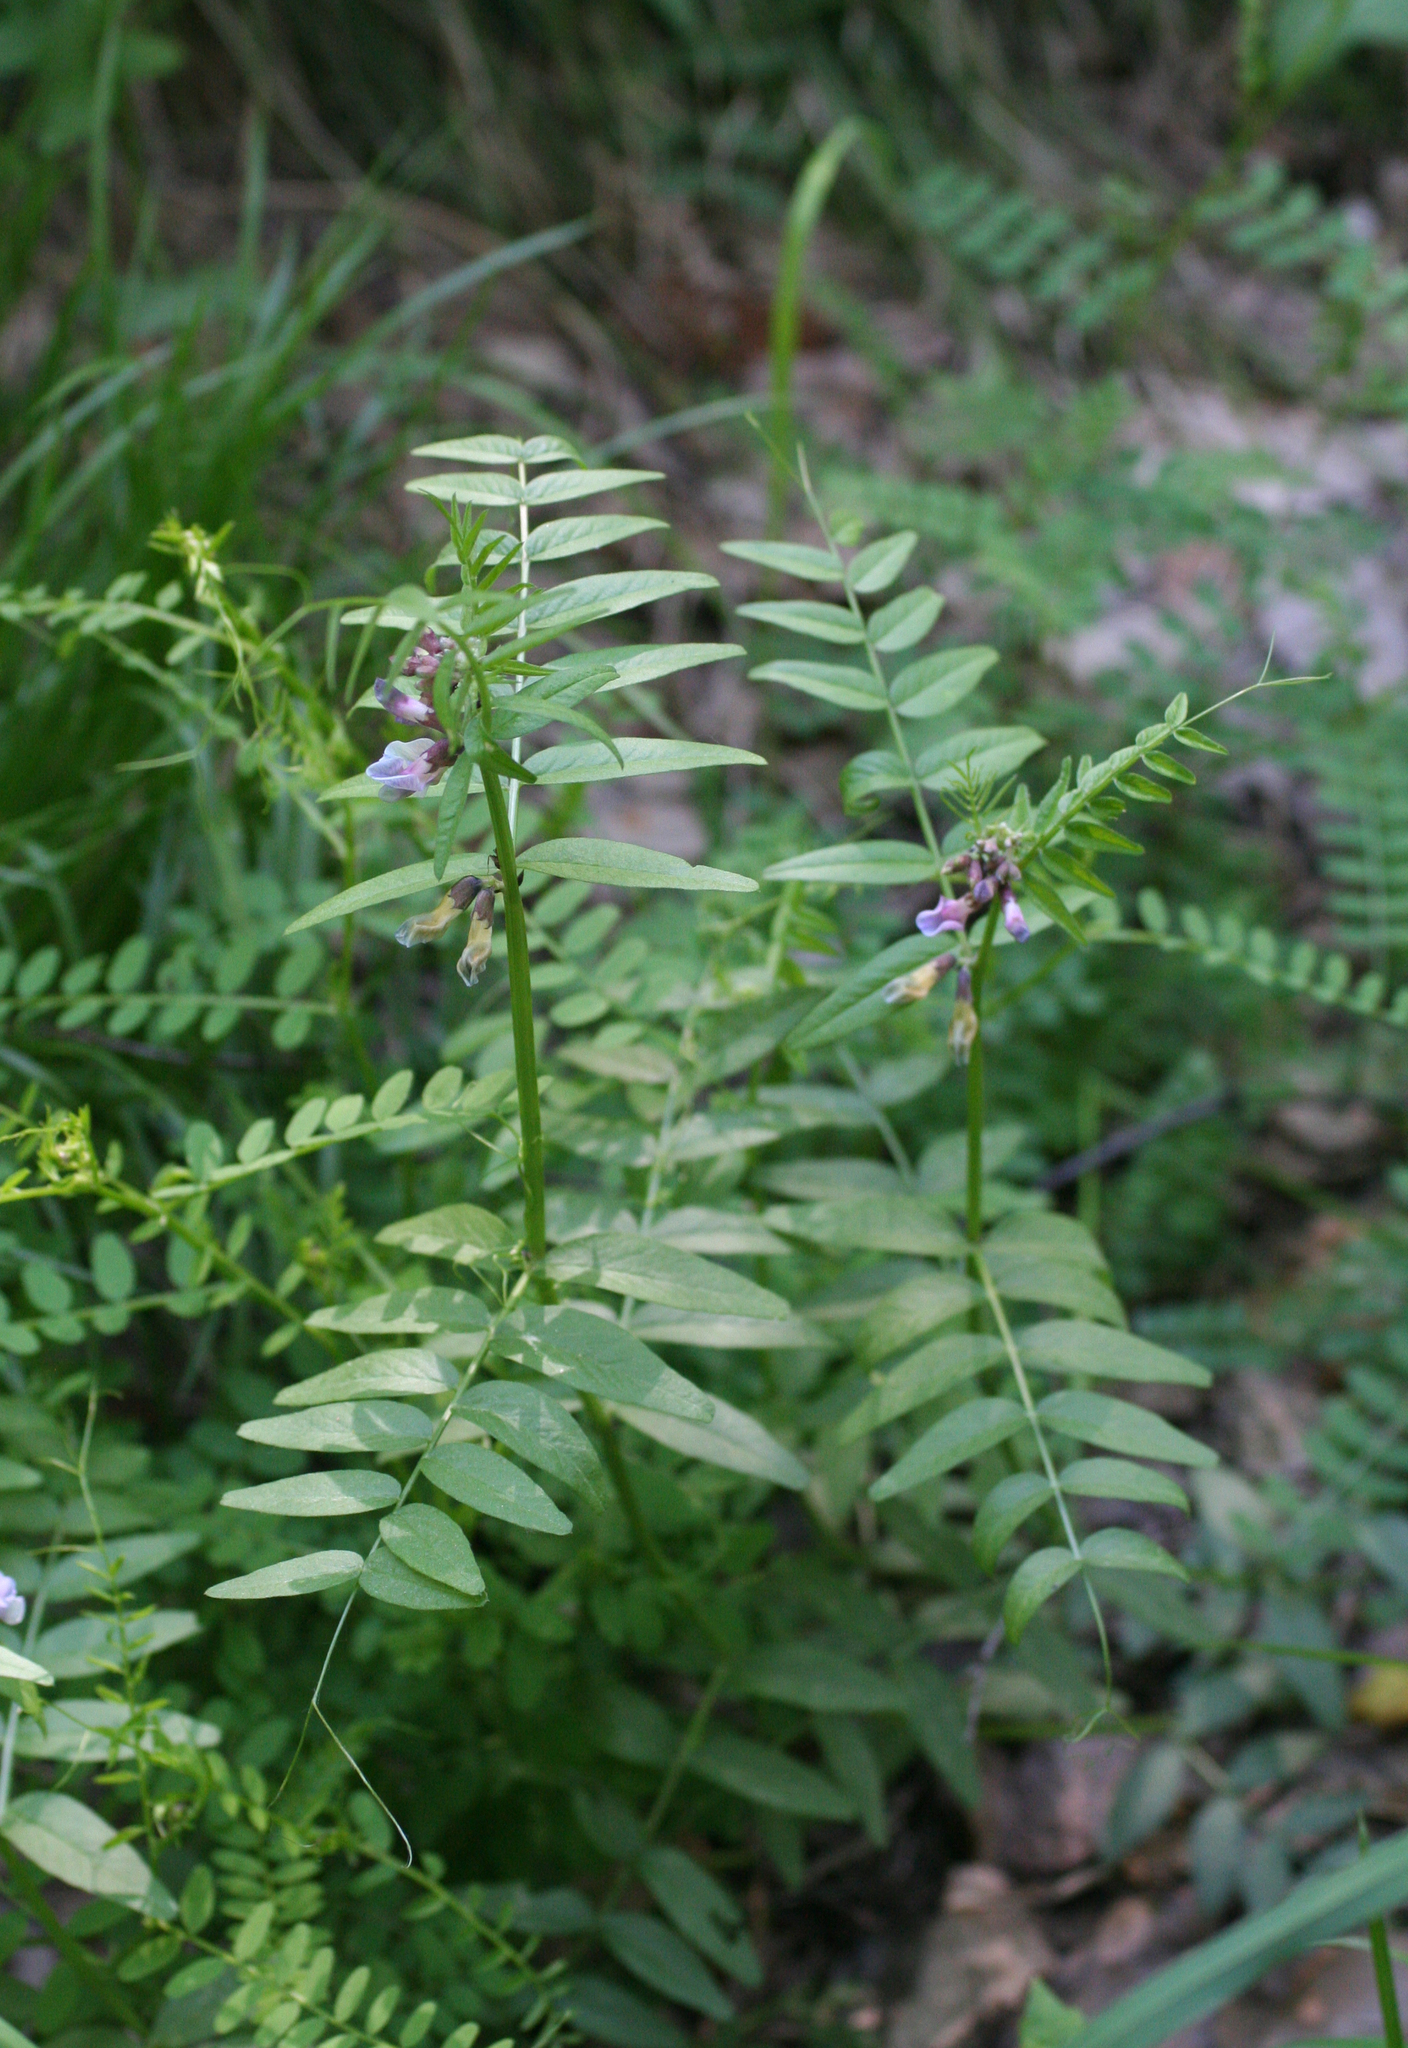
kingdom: Plantae
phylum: Tracheophyta
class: Magnoliopsida
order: Fabales
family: Fabaceae
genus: Vicia
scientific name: Vicia sepium
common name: Bush vetch
